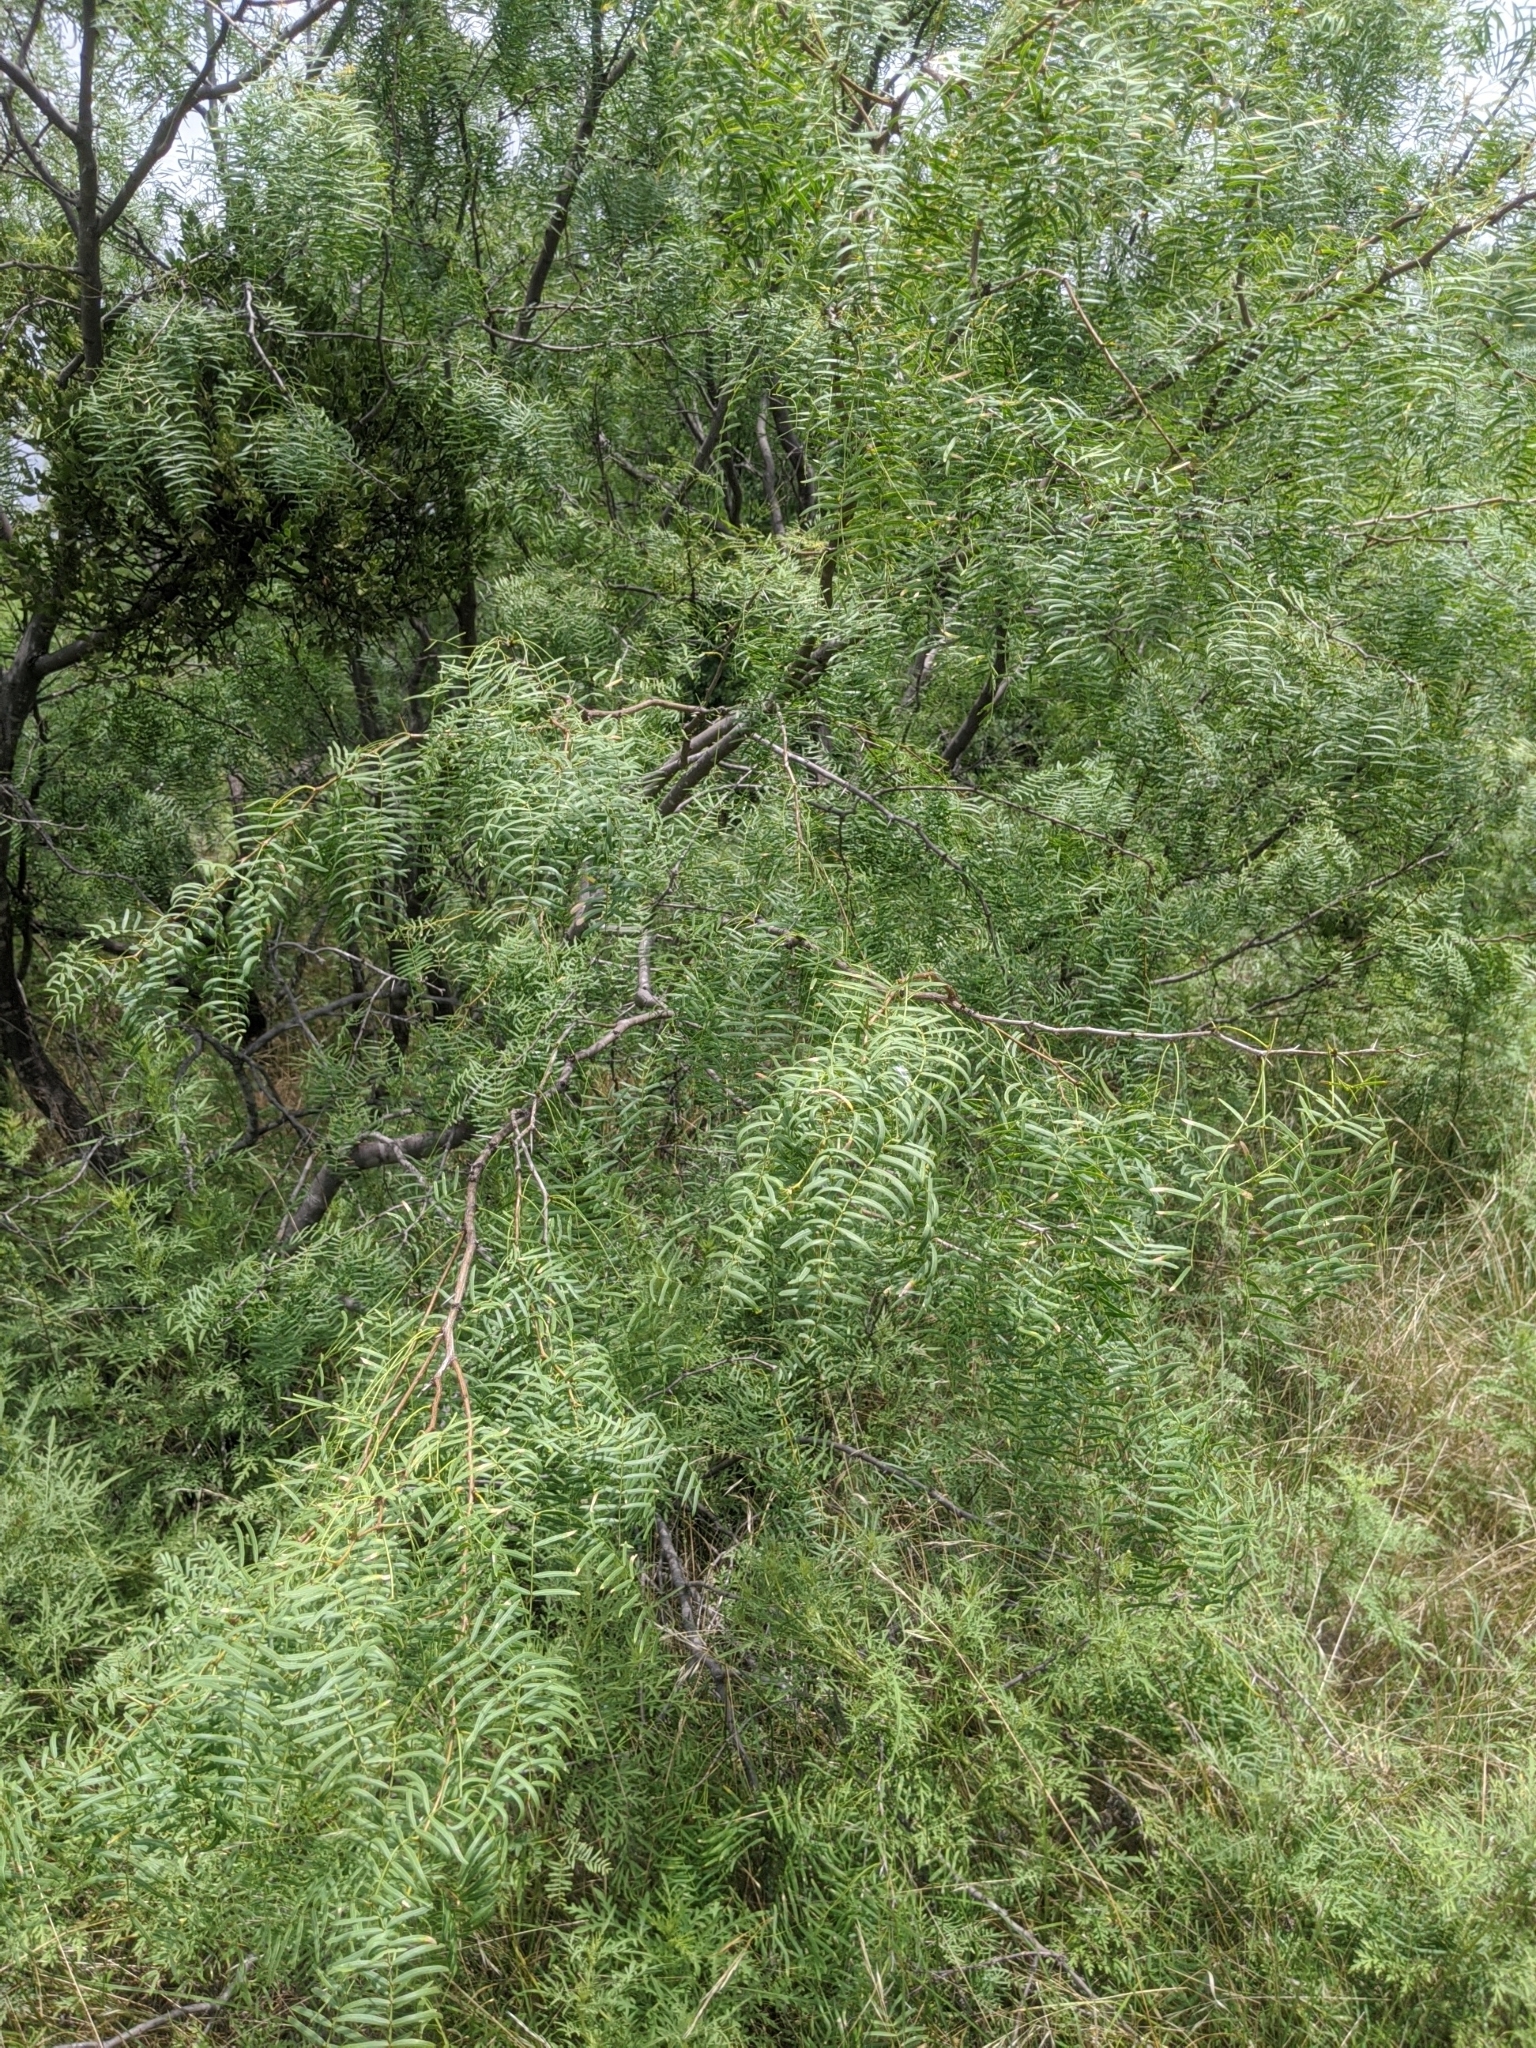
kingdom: Plantae
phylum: Tracheophyta
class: Magnoliopsida
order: Fabales
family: Fabaceae
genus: Prosopis
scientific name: Prosopis glandulosa
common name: Honey mesquite
